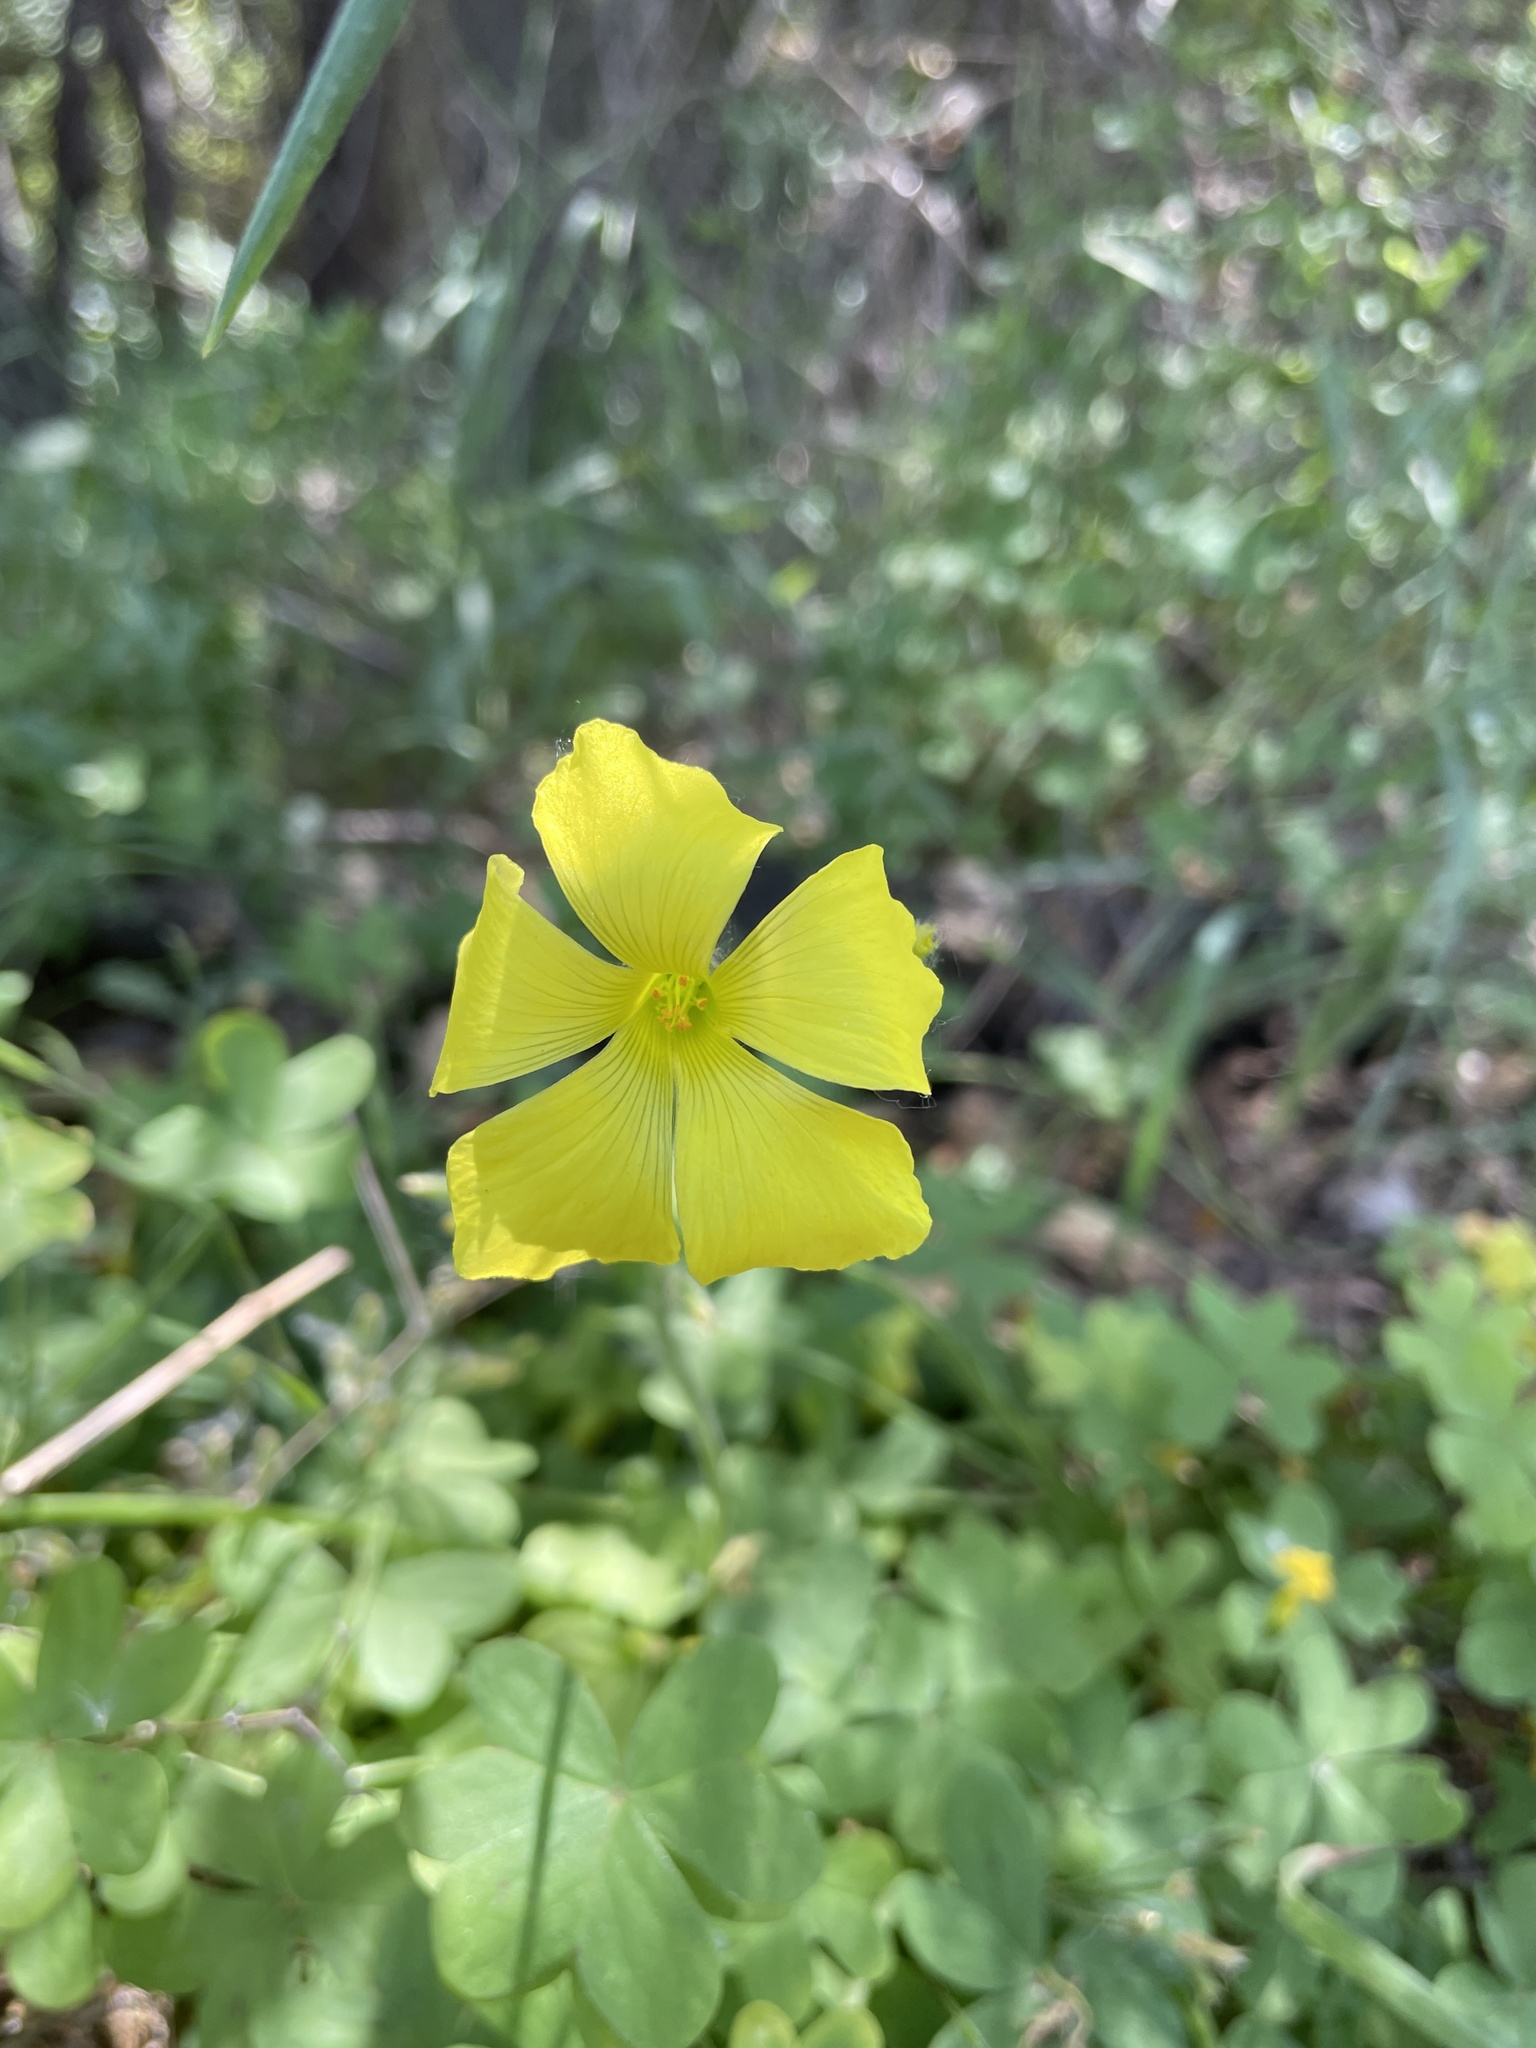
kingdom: Plantae
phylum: Tracheophyta
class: Magnoliopsida
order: Oxalidales
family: Oxalidaceae
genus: Oxalis
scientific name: Oxalis pes-caprae
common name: Bermuda-buttercup
